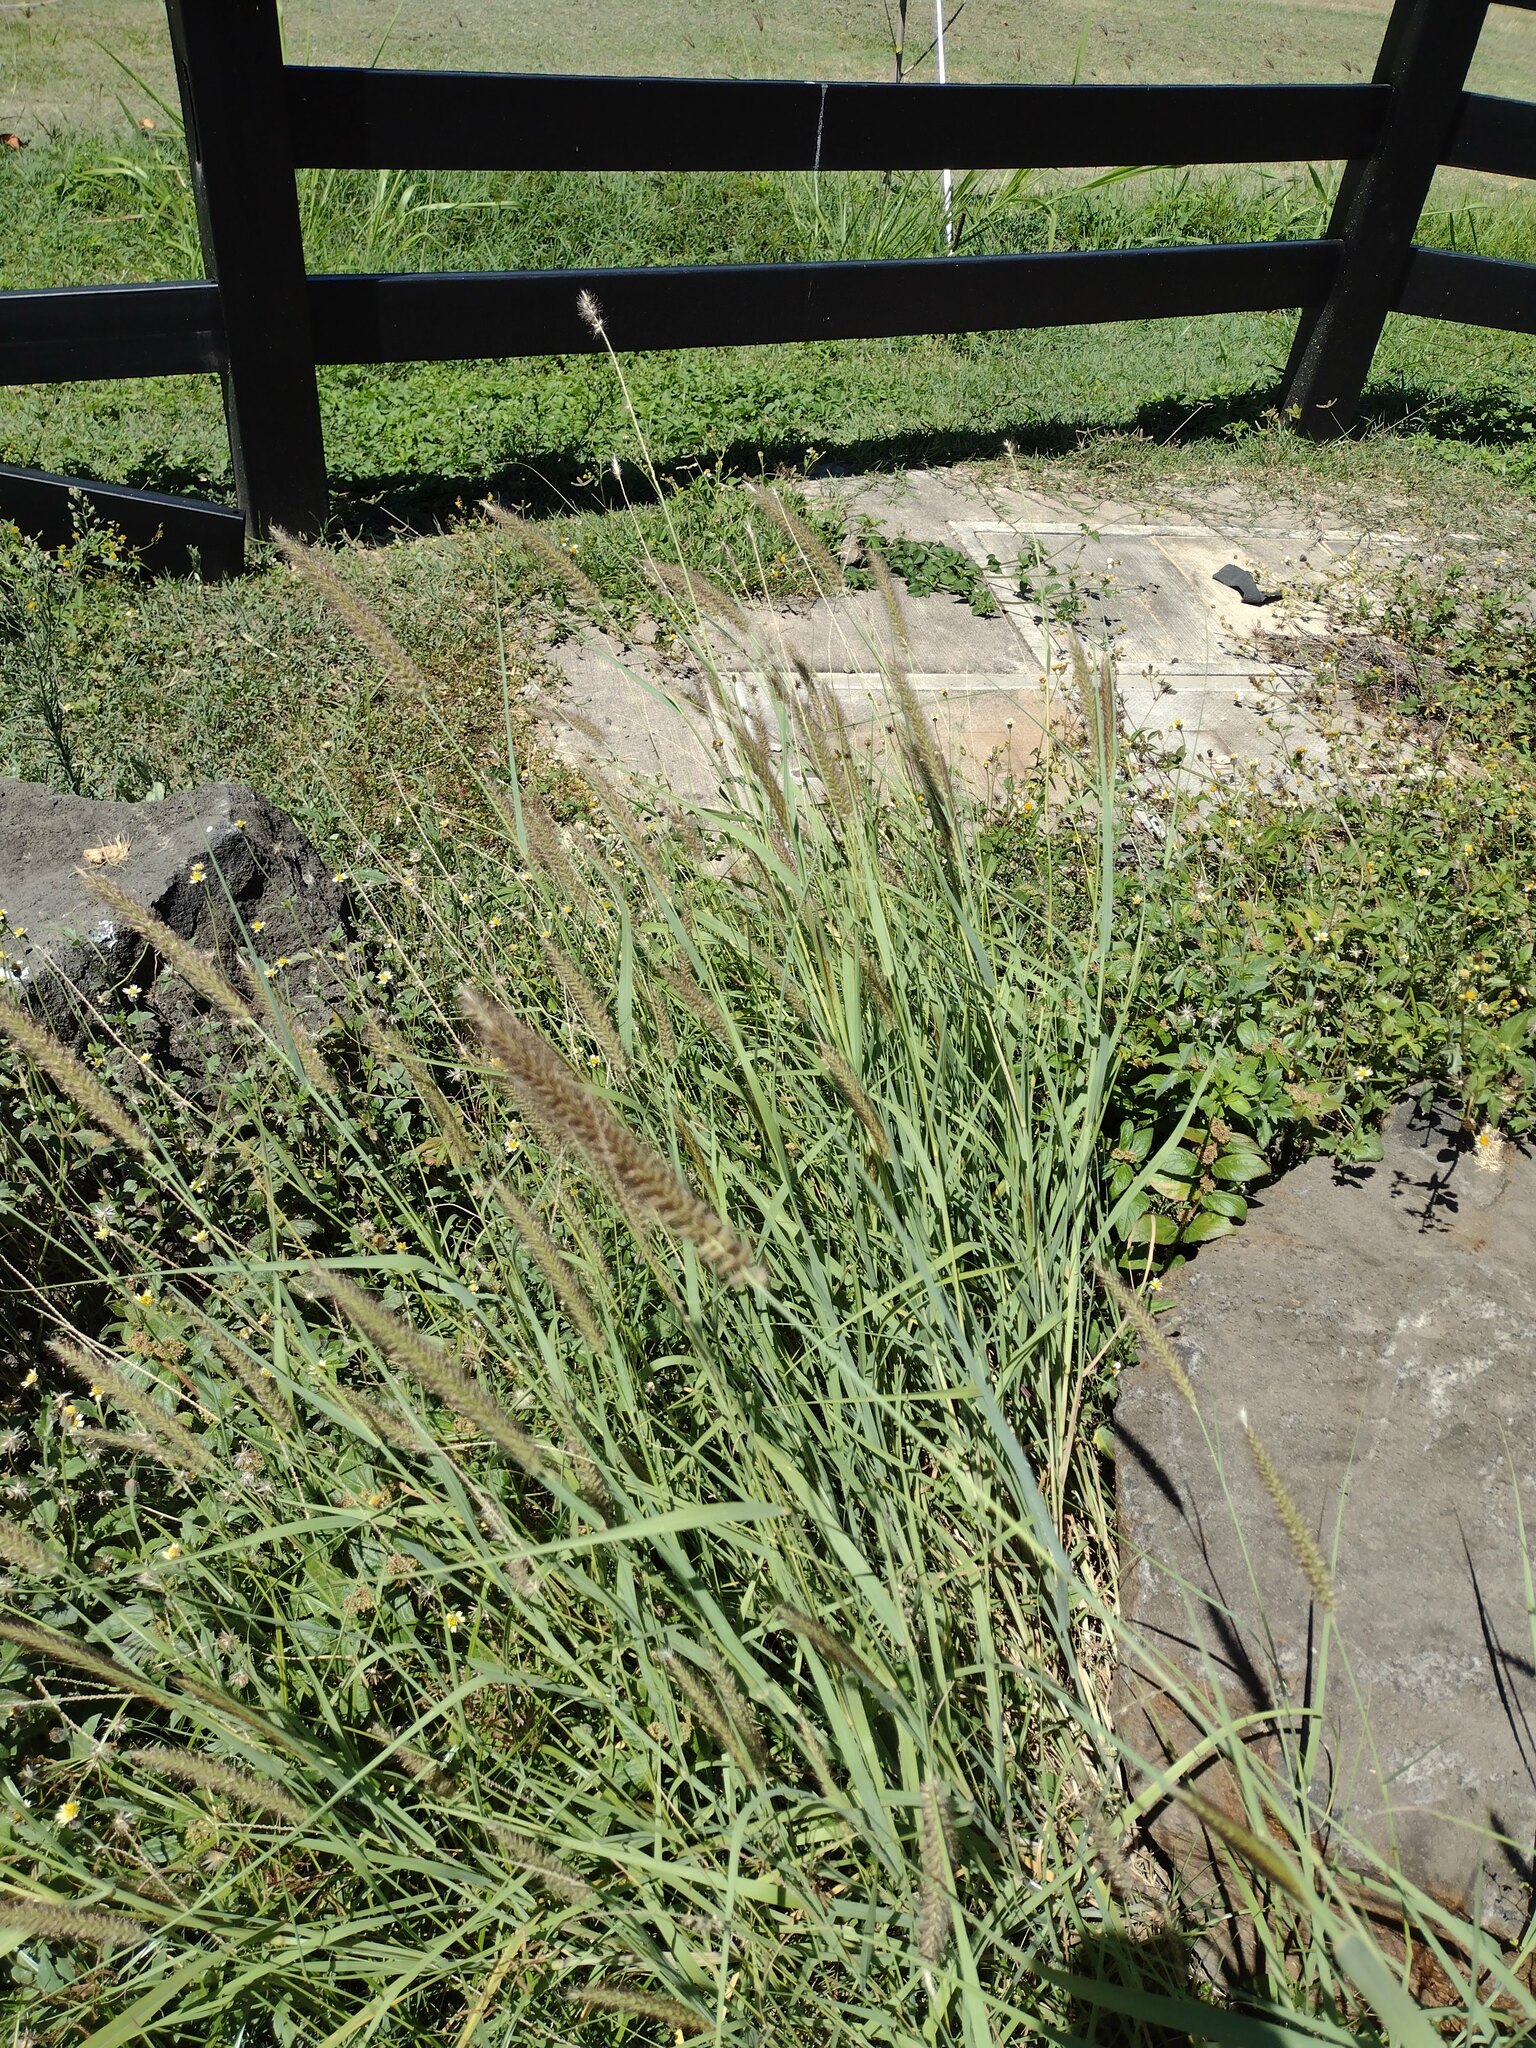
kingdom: Plantae
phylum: Tracheophyta
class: Liliopsida
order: Poales
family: Poaceae
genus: Cenchrus
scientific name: Cenchrus ciliaris
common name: Buffelgrass
